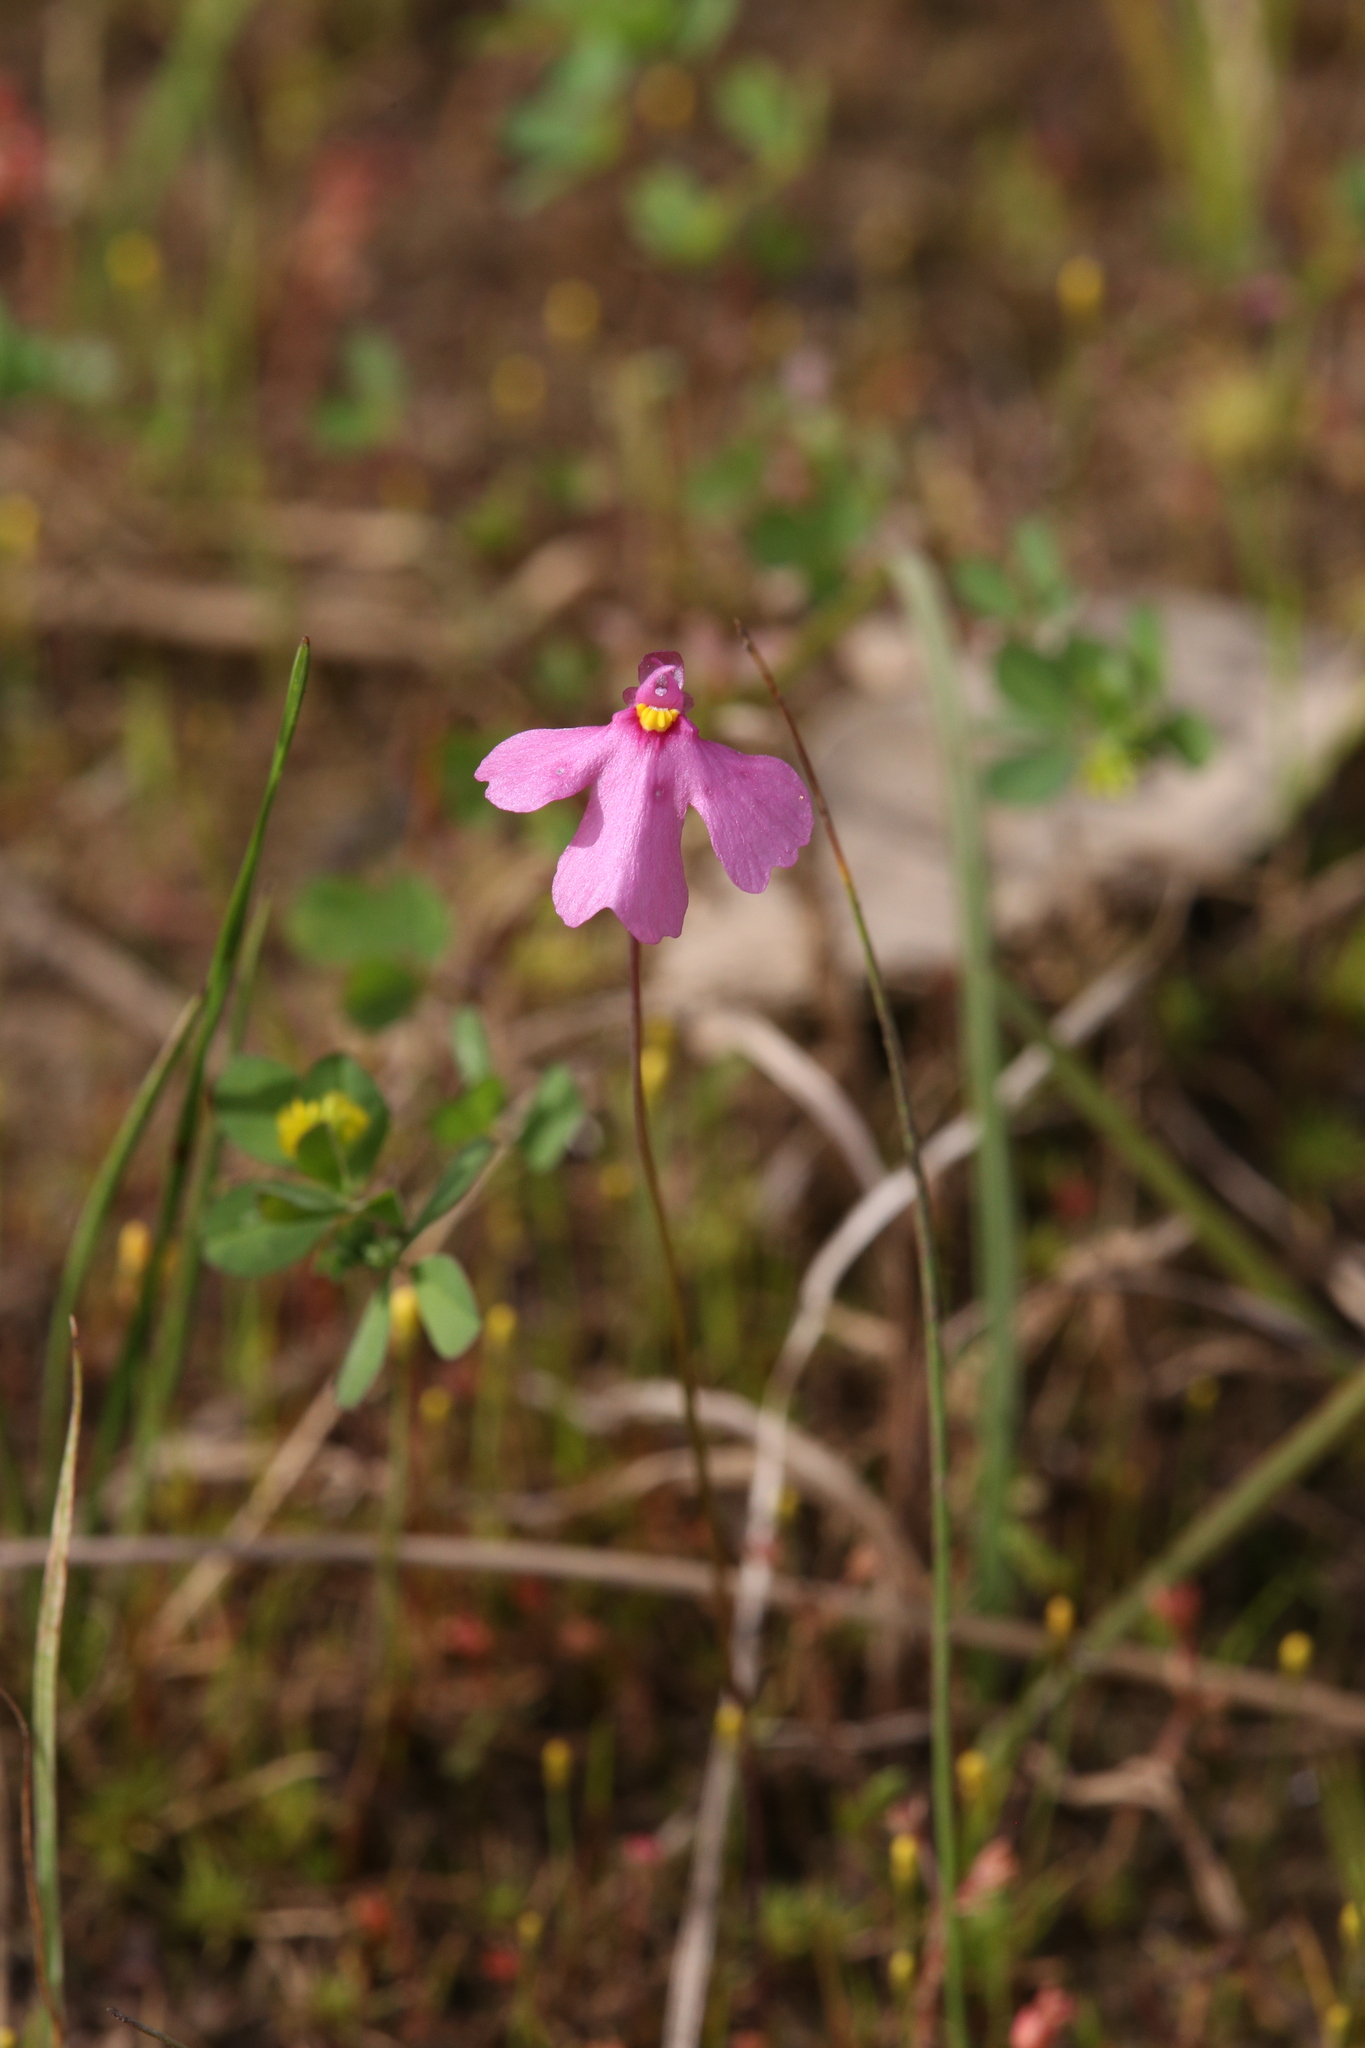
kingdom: Plantae
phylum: Tracheophyta
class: Magnoliopsida
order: Lamiales
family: Lentibulariaceae
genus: Utricularia
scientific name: Utricularia multifida
